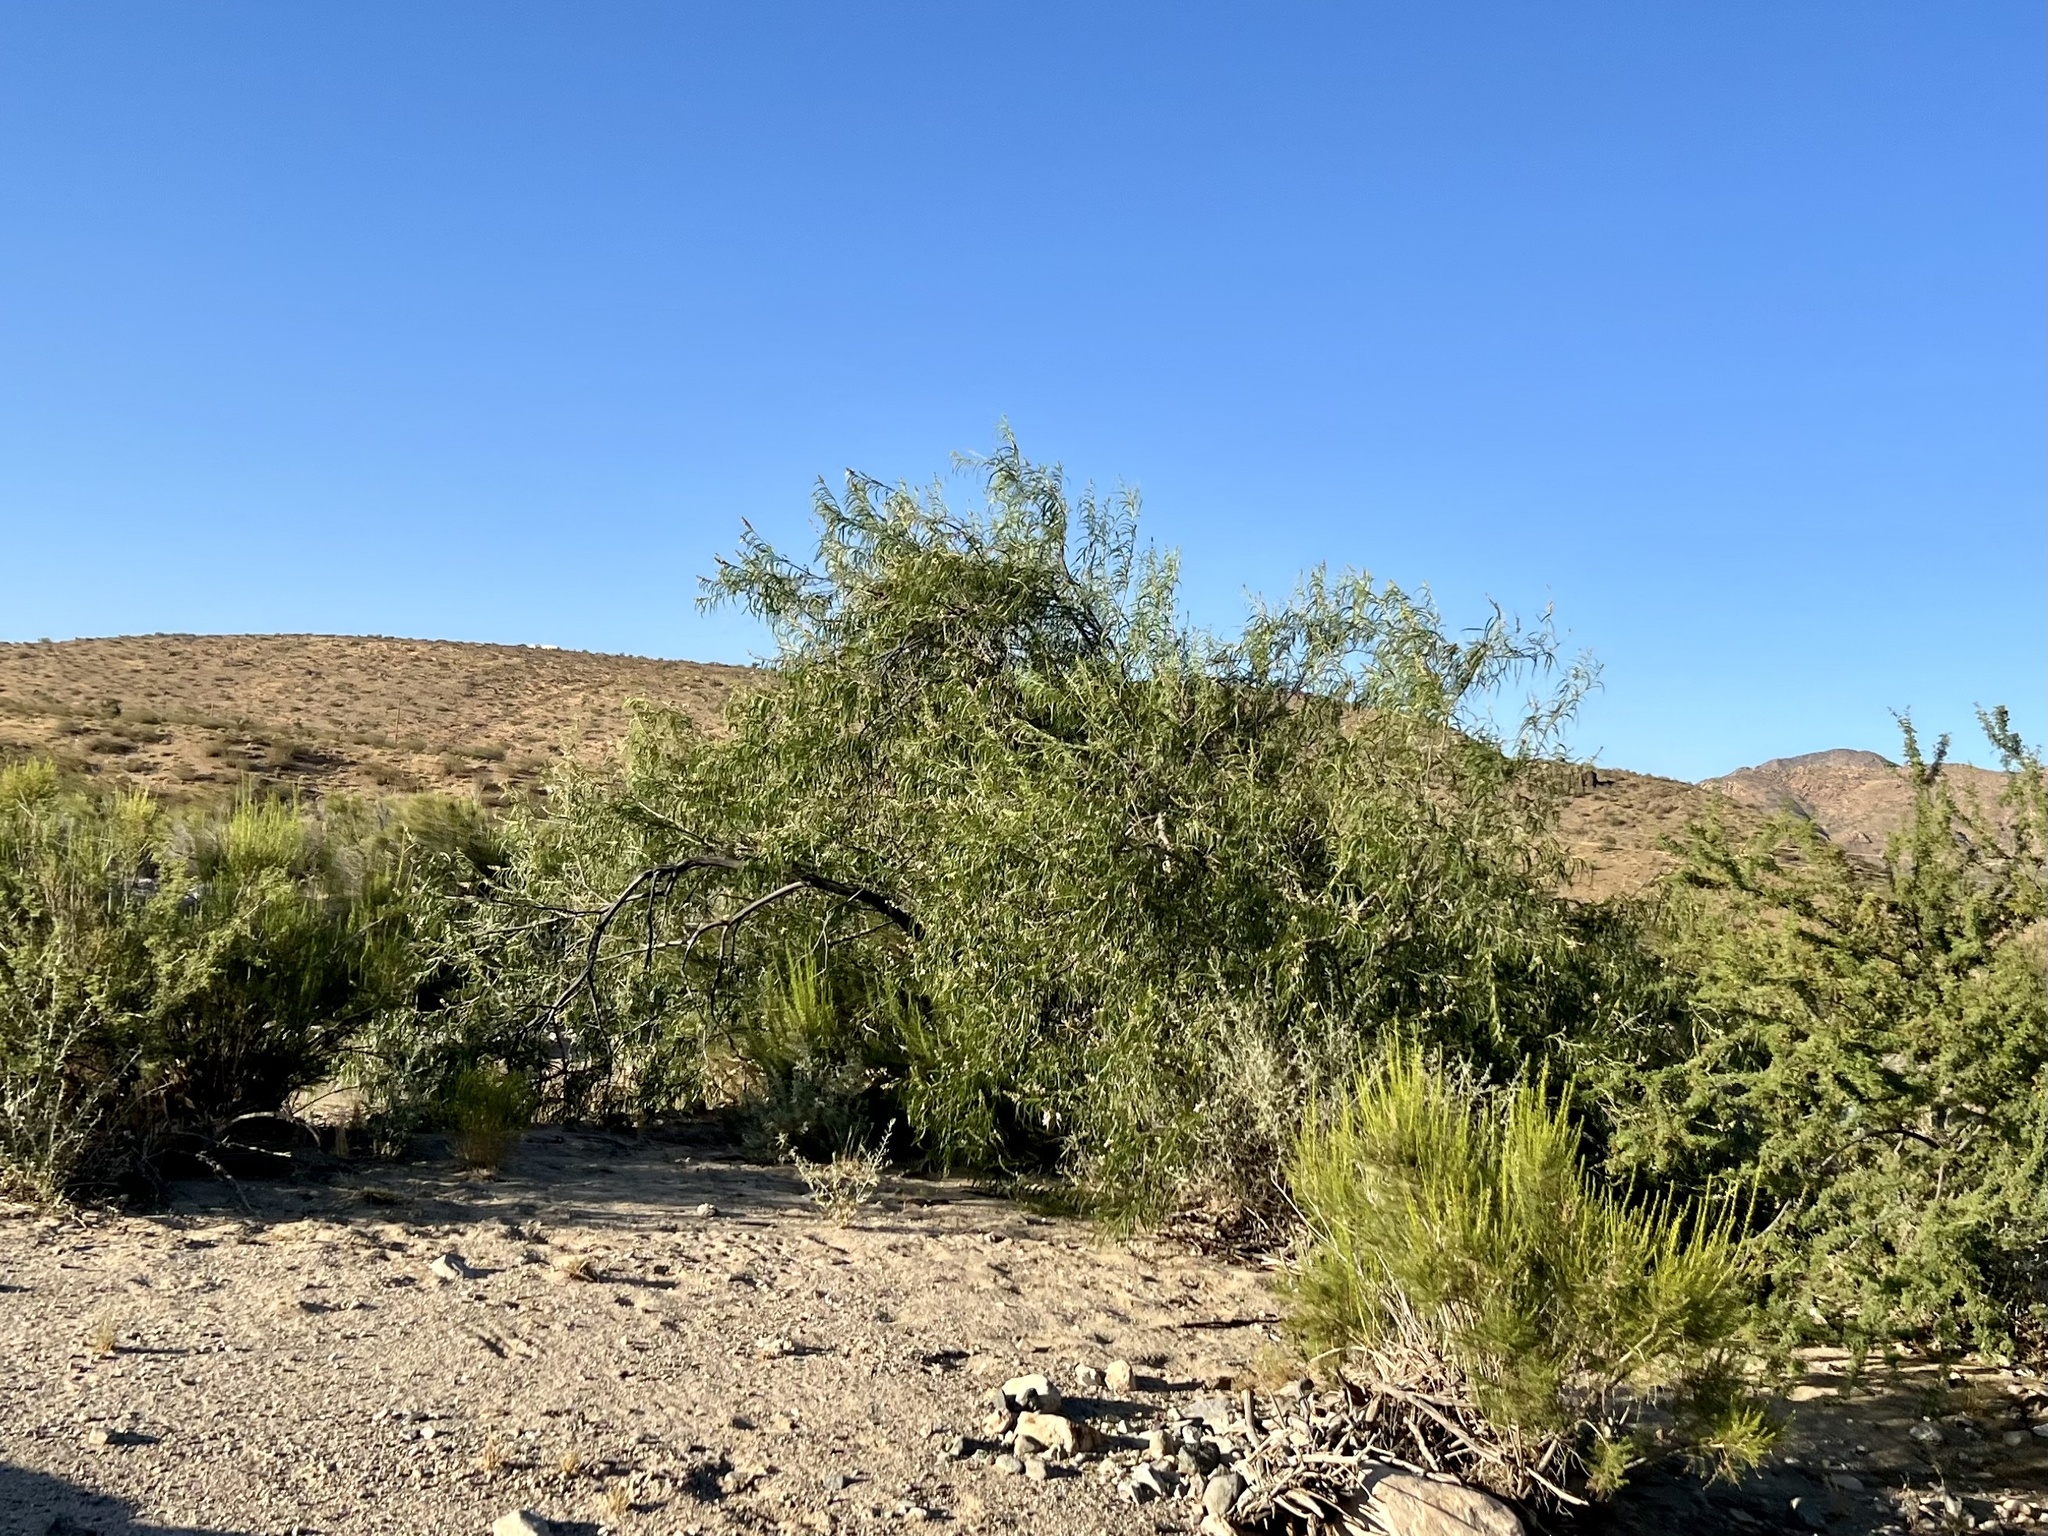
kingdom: Plantae
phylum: Tracheophyta
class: Magnoliopsida
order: Lamiales
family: Bignoniaceae
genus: Chilopsis
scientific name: Chilopsis linearis
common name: Desert-willow
